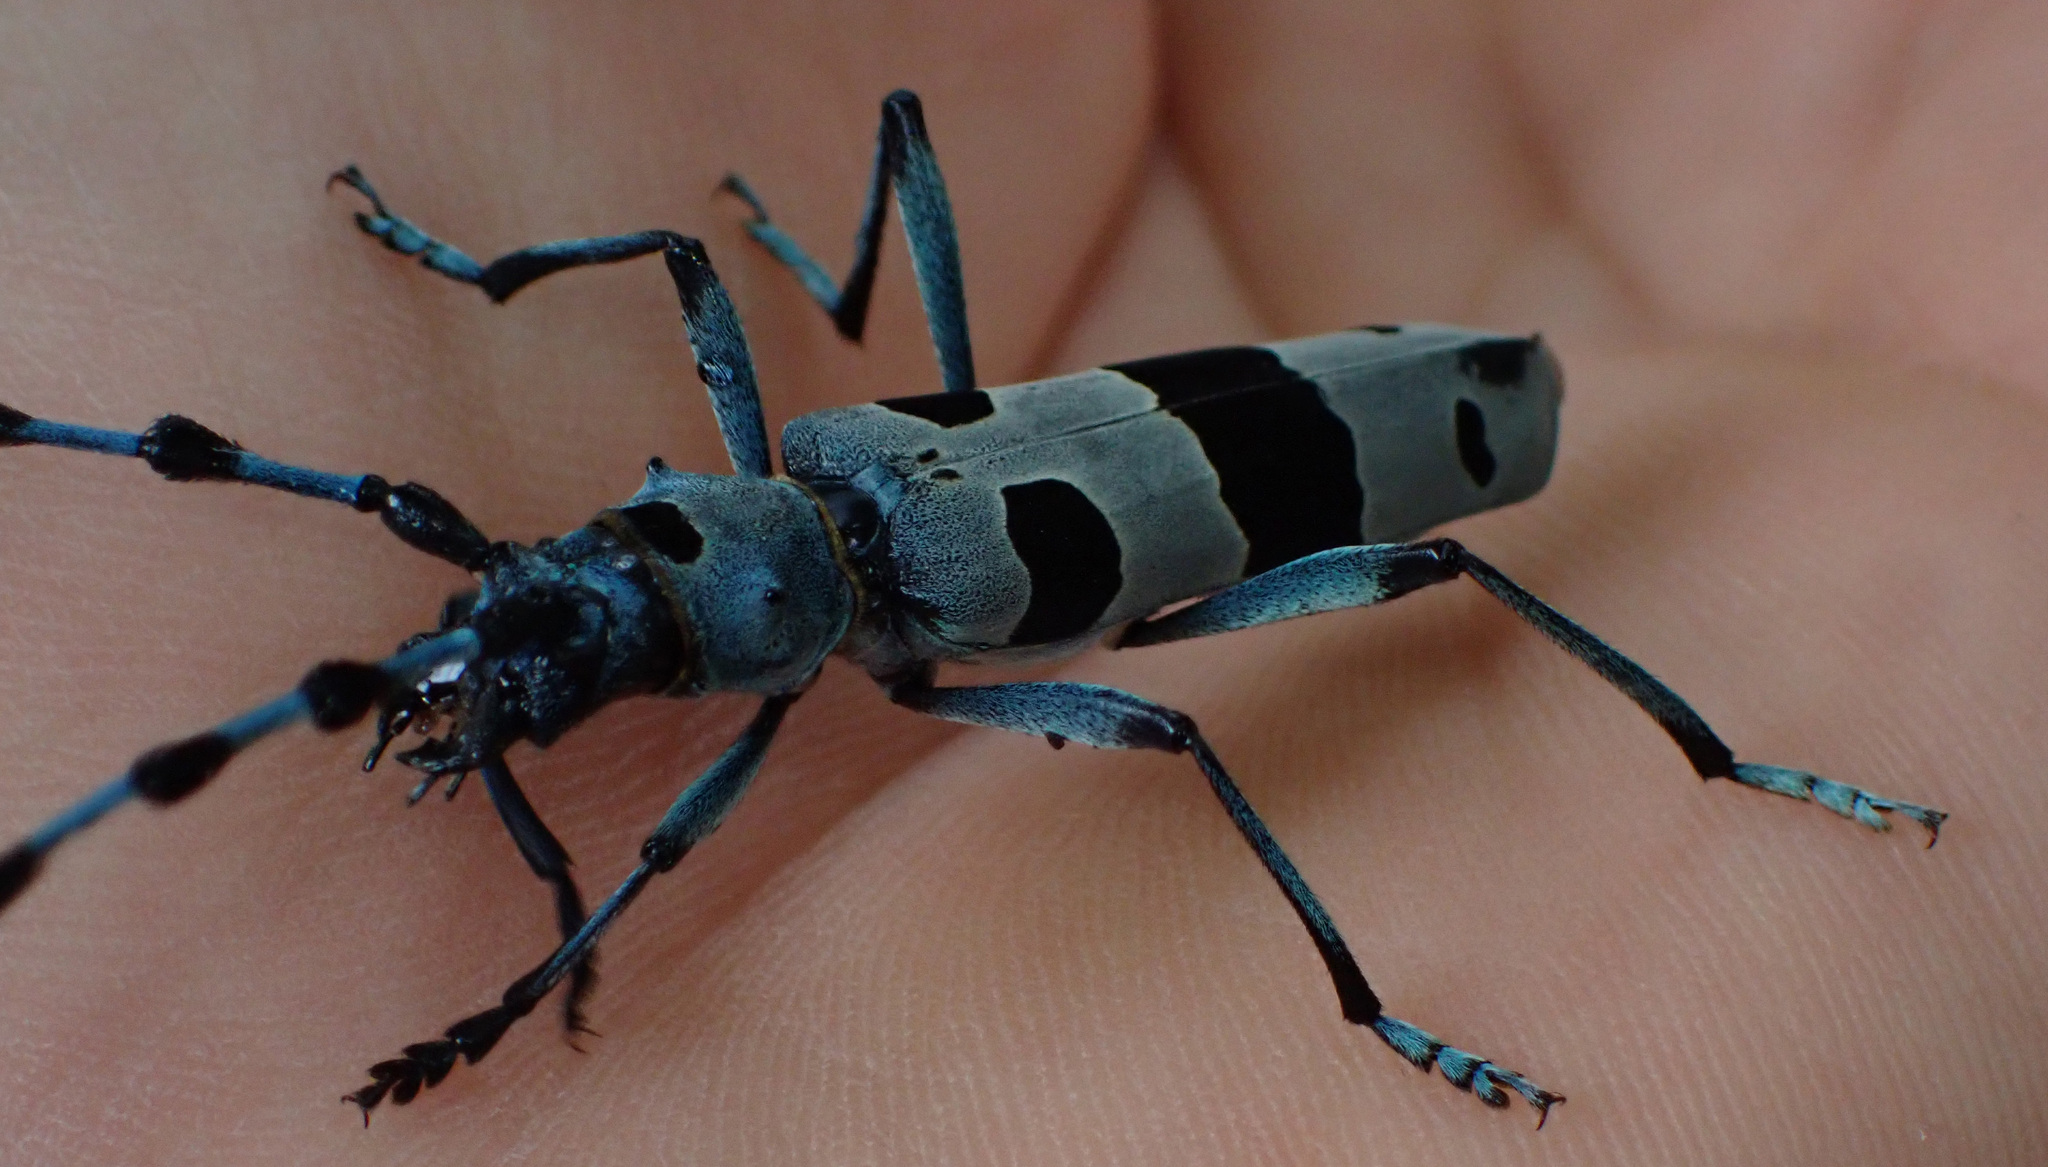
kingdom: Animalia
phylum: Arthropoda
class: Insecta
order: Coleoptera
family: Cerambycidae
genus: Rosalia
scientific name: Rosalia alpina
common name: Rosalia longicorn
